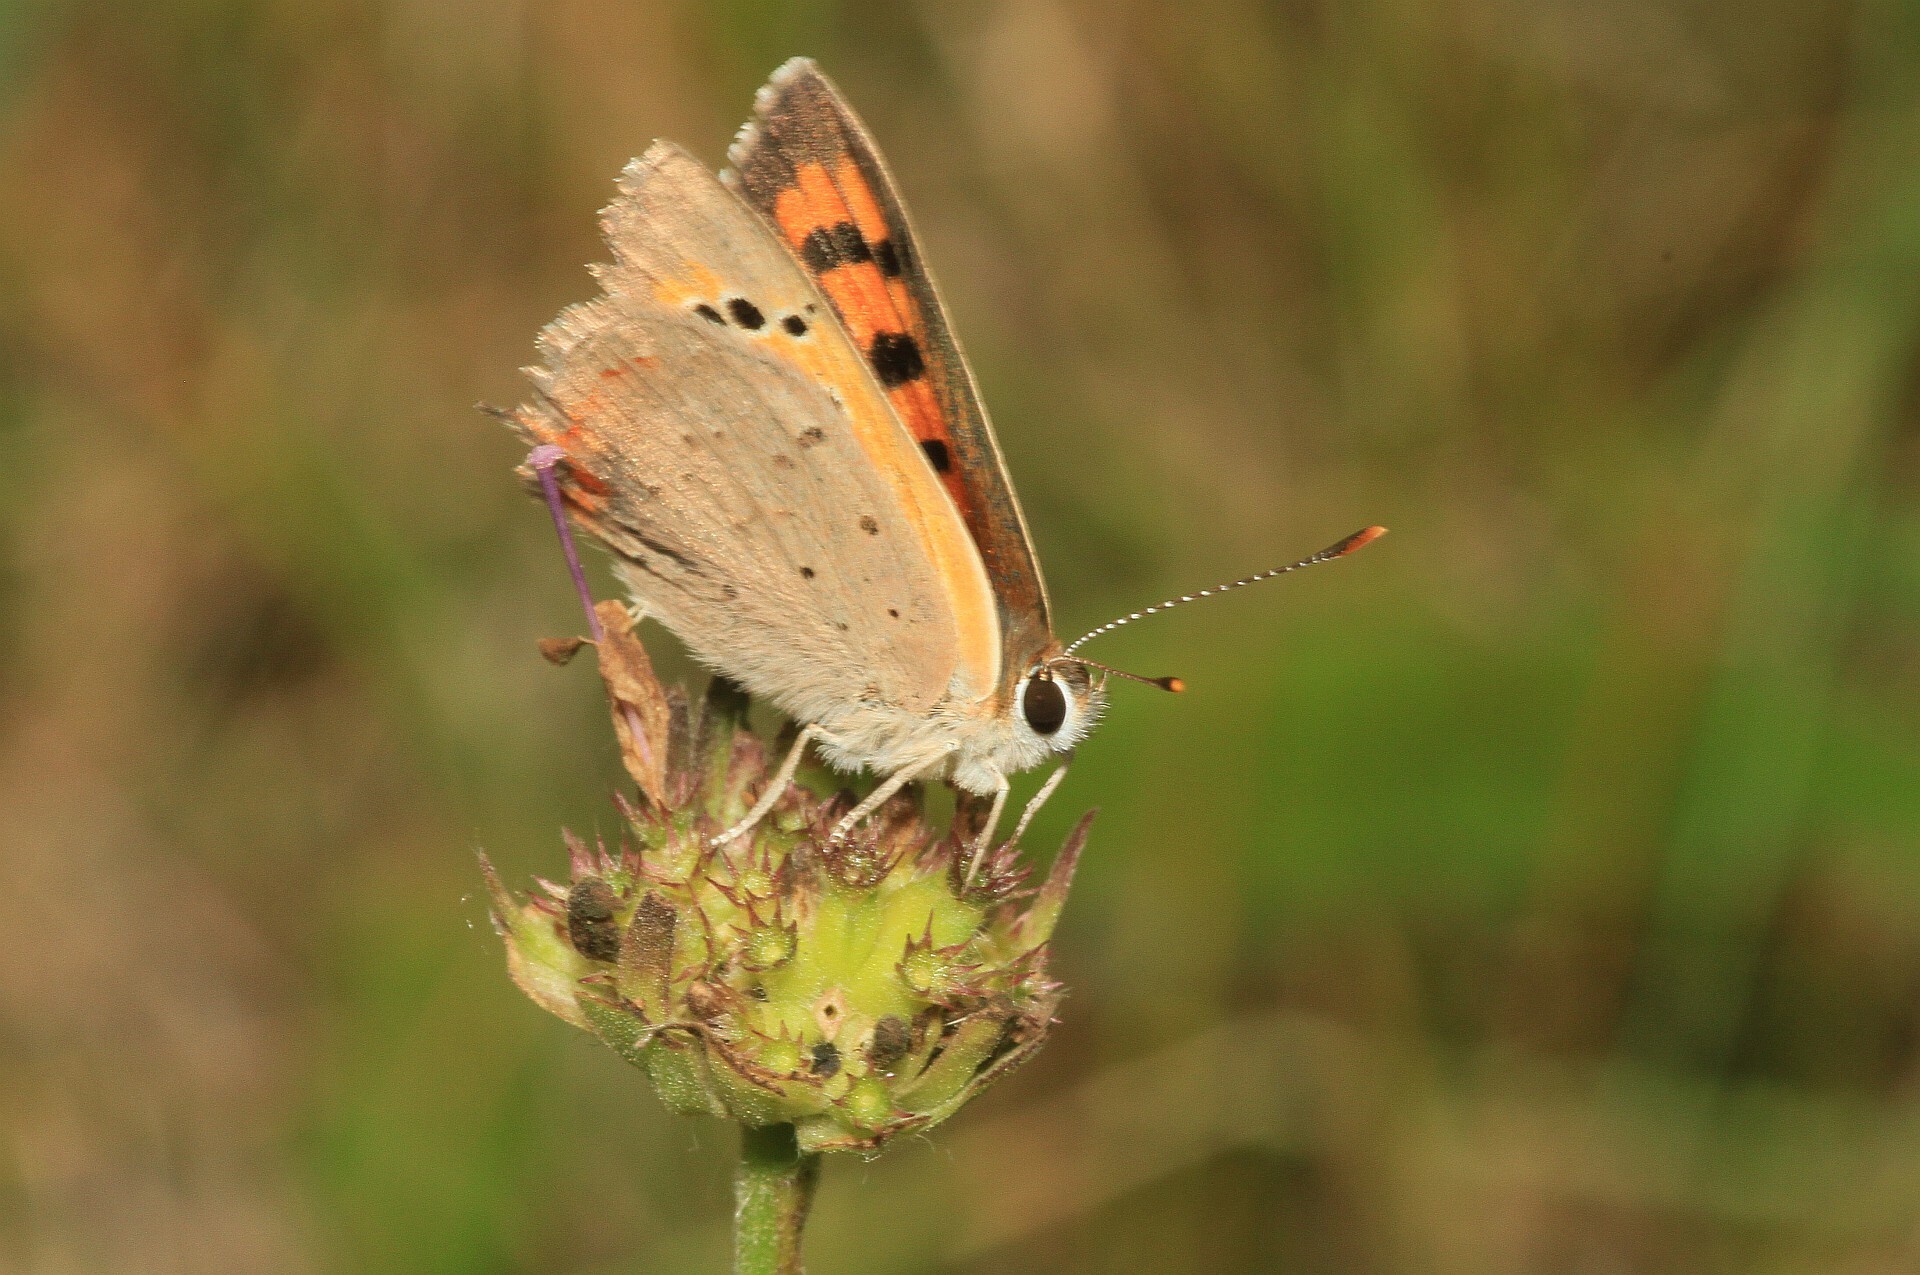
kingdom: Animalia
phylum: Arthropoda
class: Insecta
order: Lepidoptera
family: Lycaenidae
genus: Lycaena
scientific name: Lycaena phlaeas
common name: Small copper
